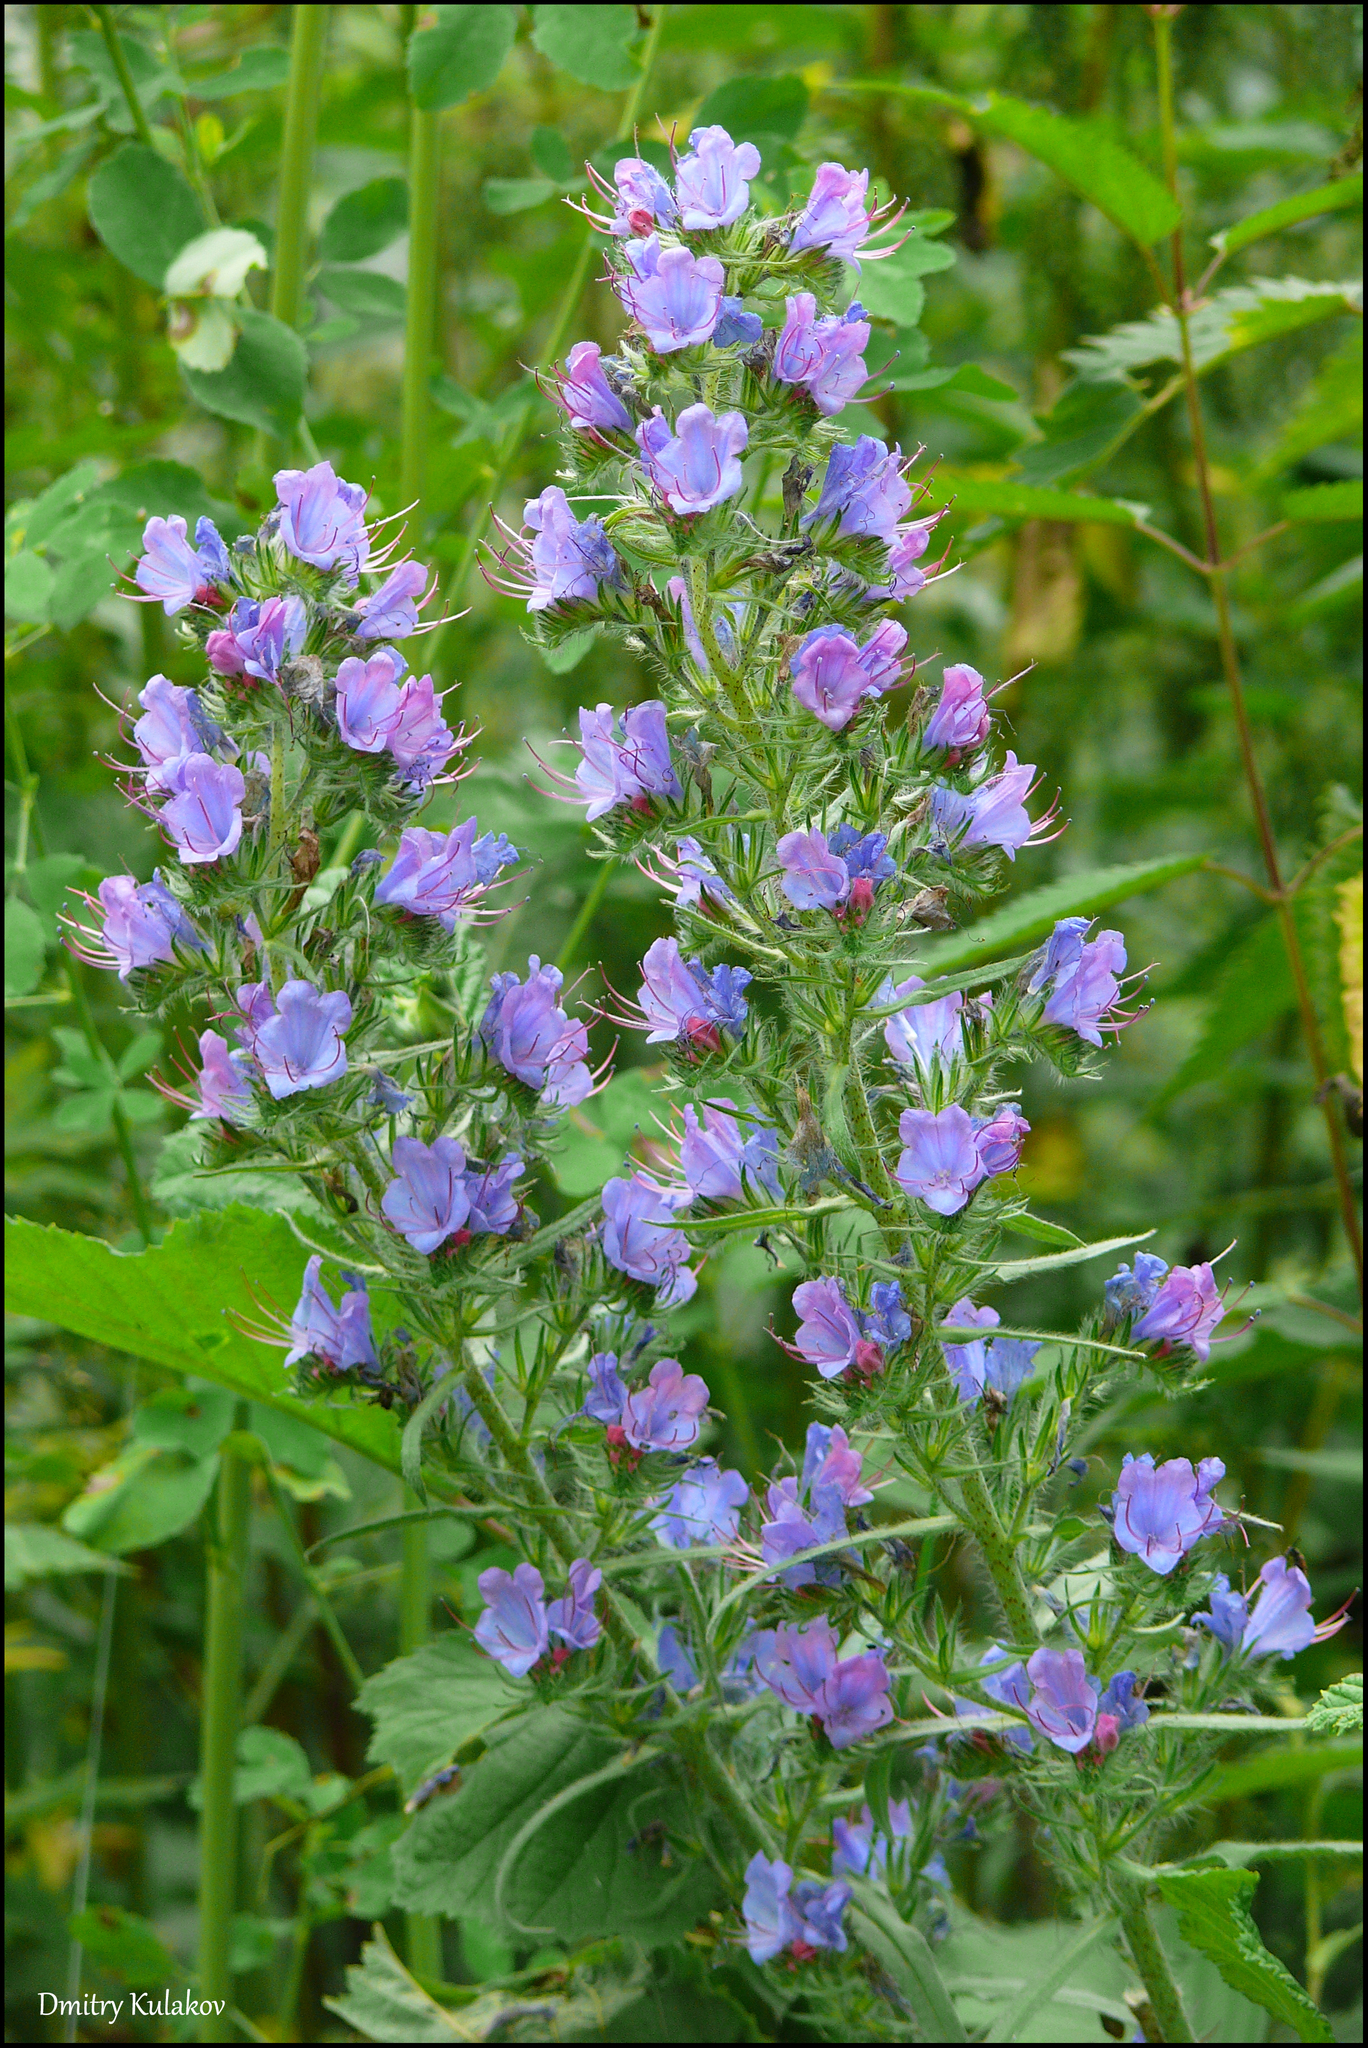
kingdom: Plantae
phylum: Tracheophyta
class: Magnoliopsida
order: Boraginales
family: Boraginaceae
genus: Echium
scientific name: Echium vulgare
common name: Common viper's bugloss
